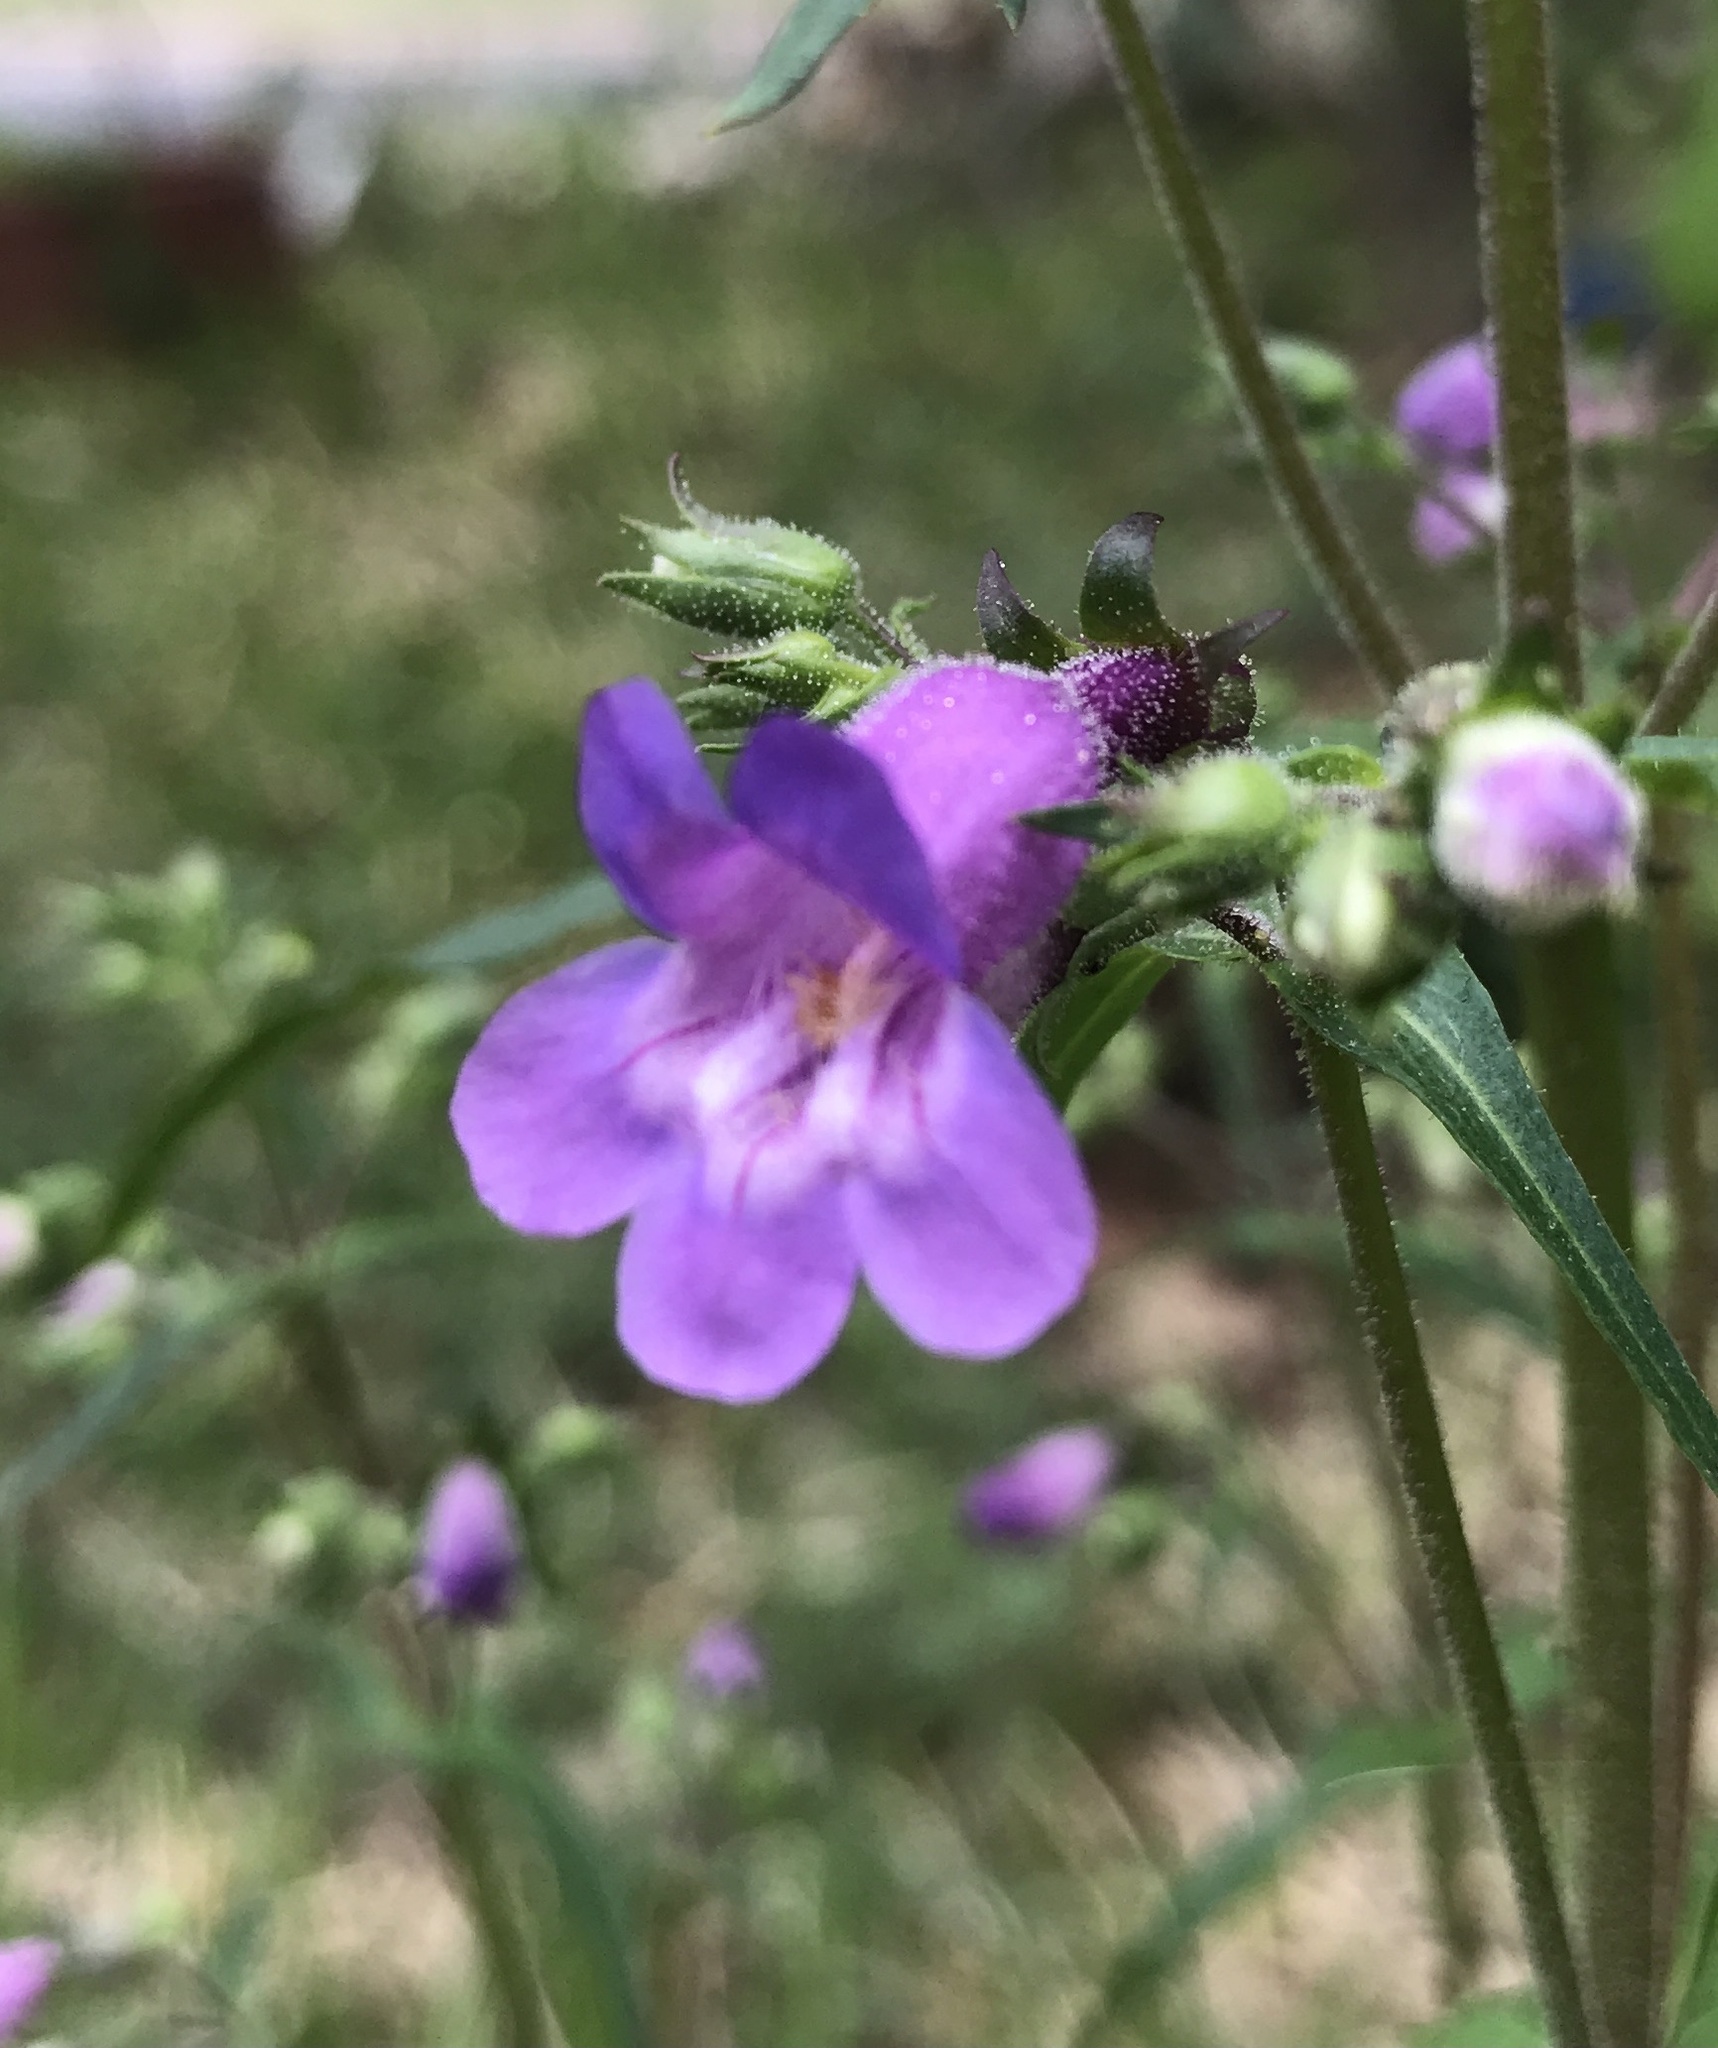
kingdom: Plantae
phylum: Tracheophyta
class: Magnoliopsida
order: Lamiales
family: Plantaginaceae
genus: Penstemon
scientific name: Penstemon tenuis
